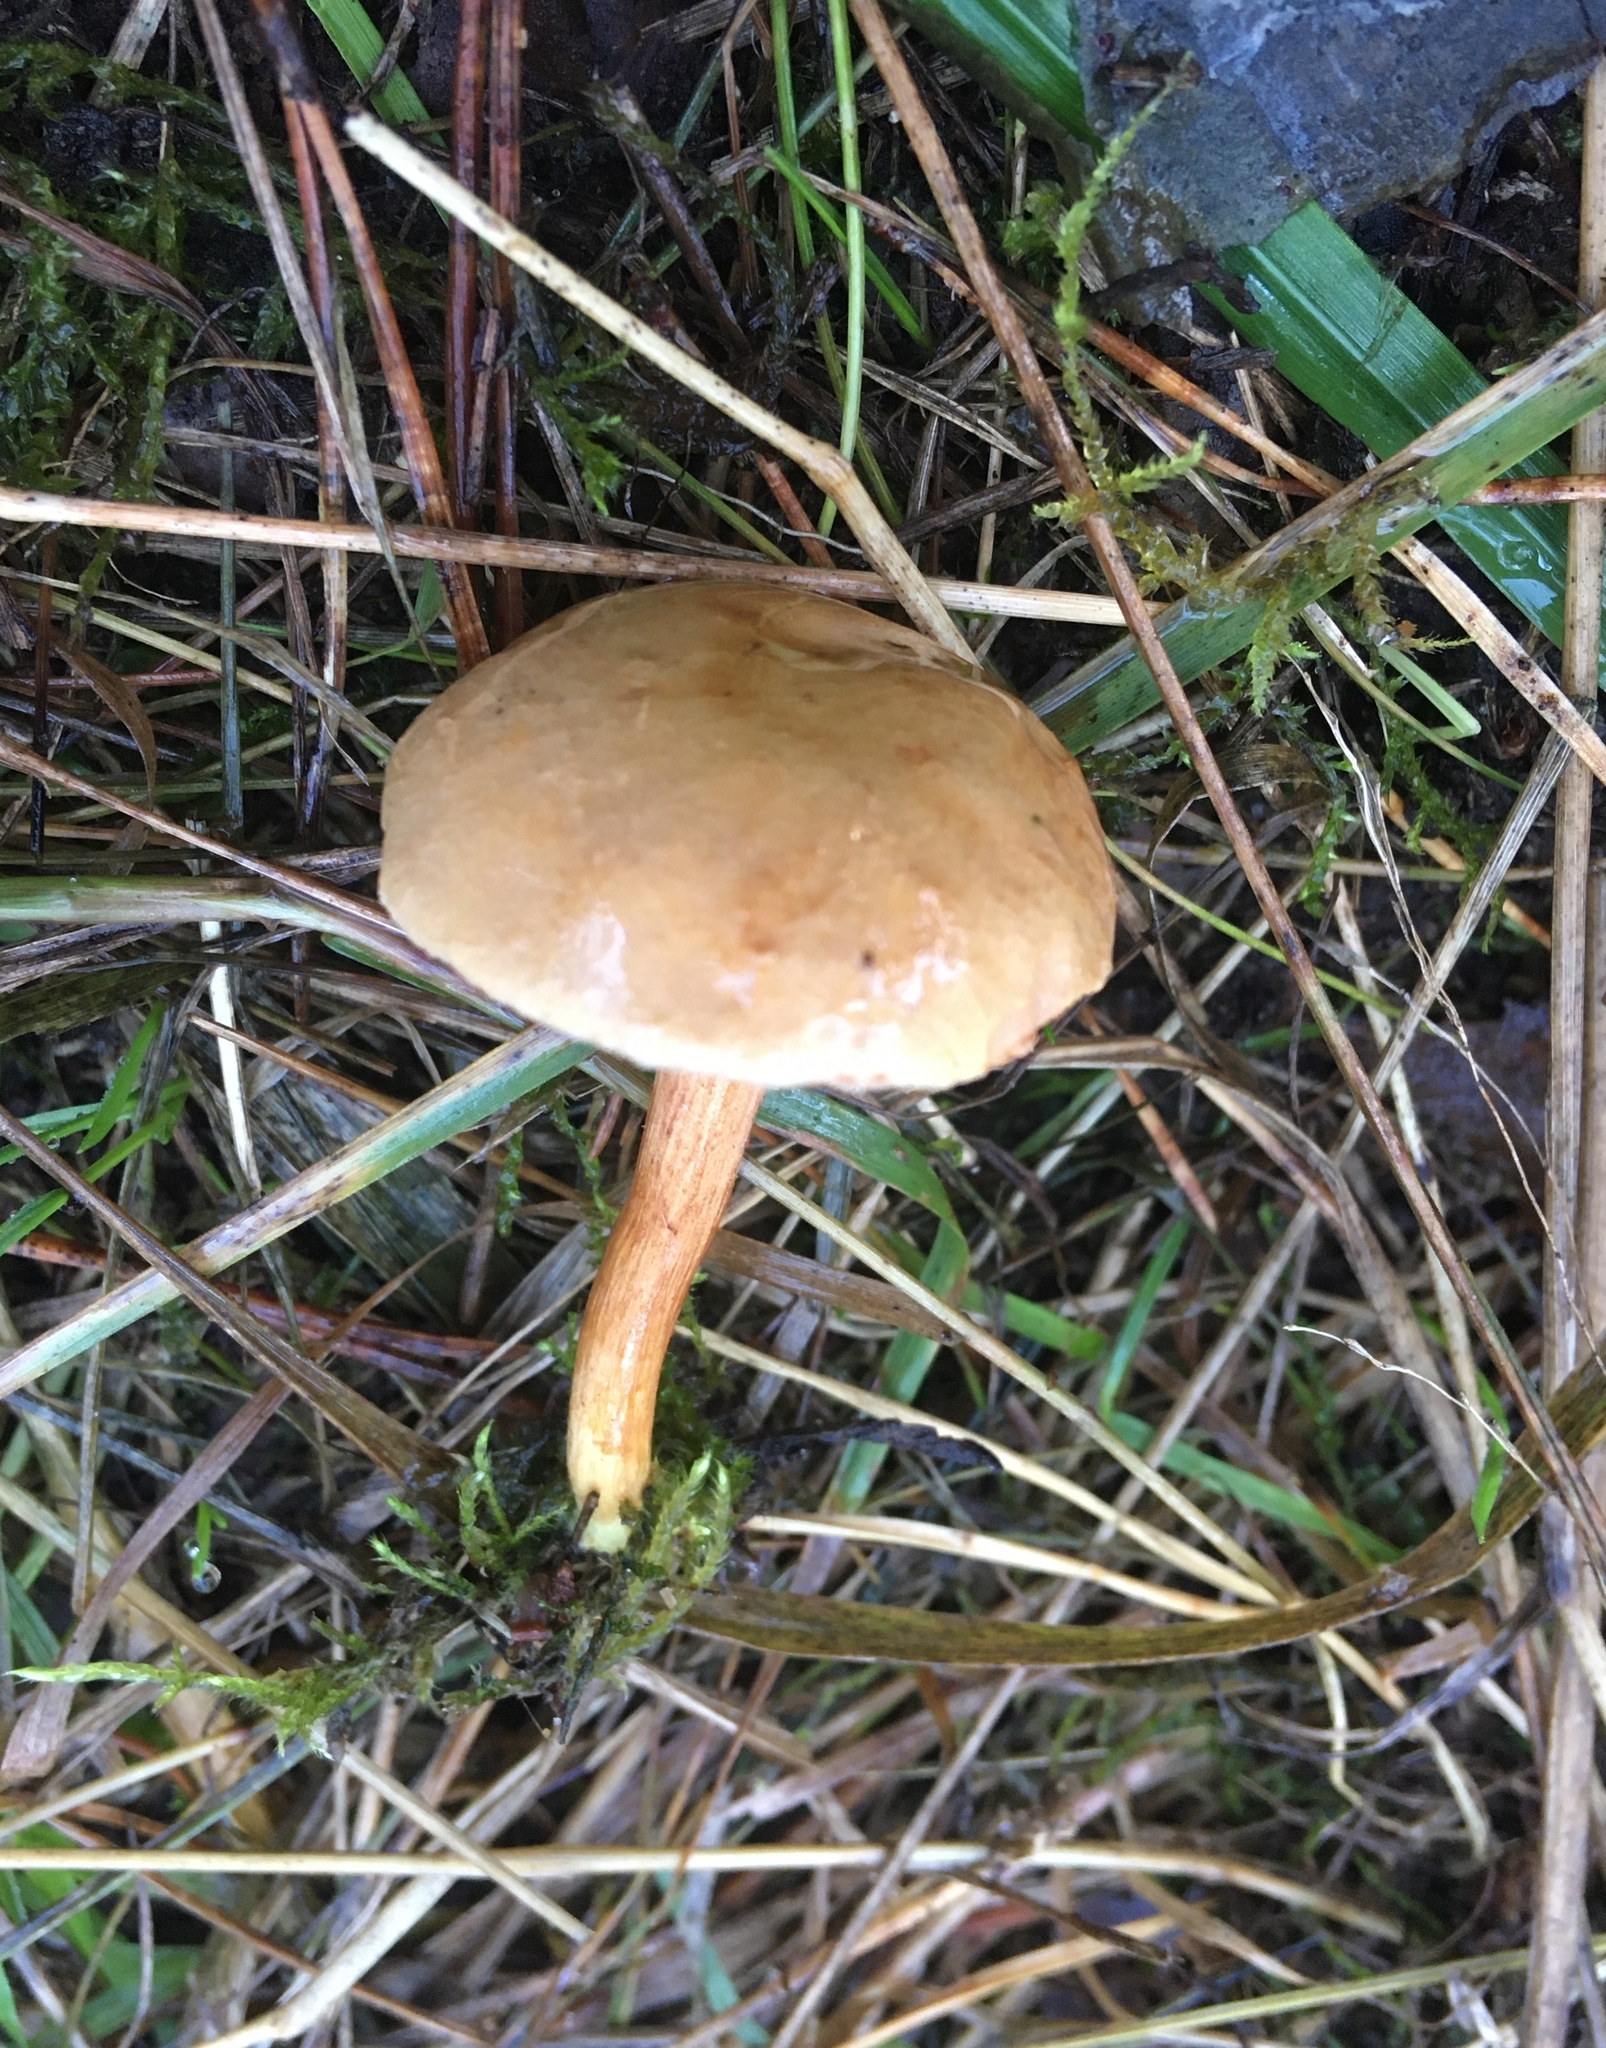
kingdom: Fungi
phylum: Basidiomycota
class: Agaricomycetes
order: Boletales
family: Boletaceae
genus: Chalciporus
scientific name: Chalciporus piperatus
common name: Peppery bolete
